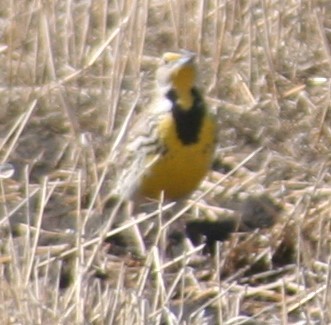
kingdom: Animalia
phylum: Chordata
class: Aves
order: Passeriformes
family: Icteridae
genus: Sturnella
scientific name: Sturnella neglecta
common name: Western meadowlark
